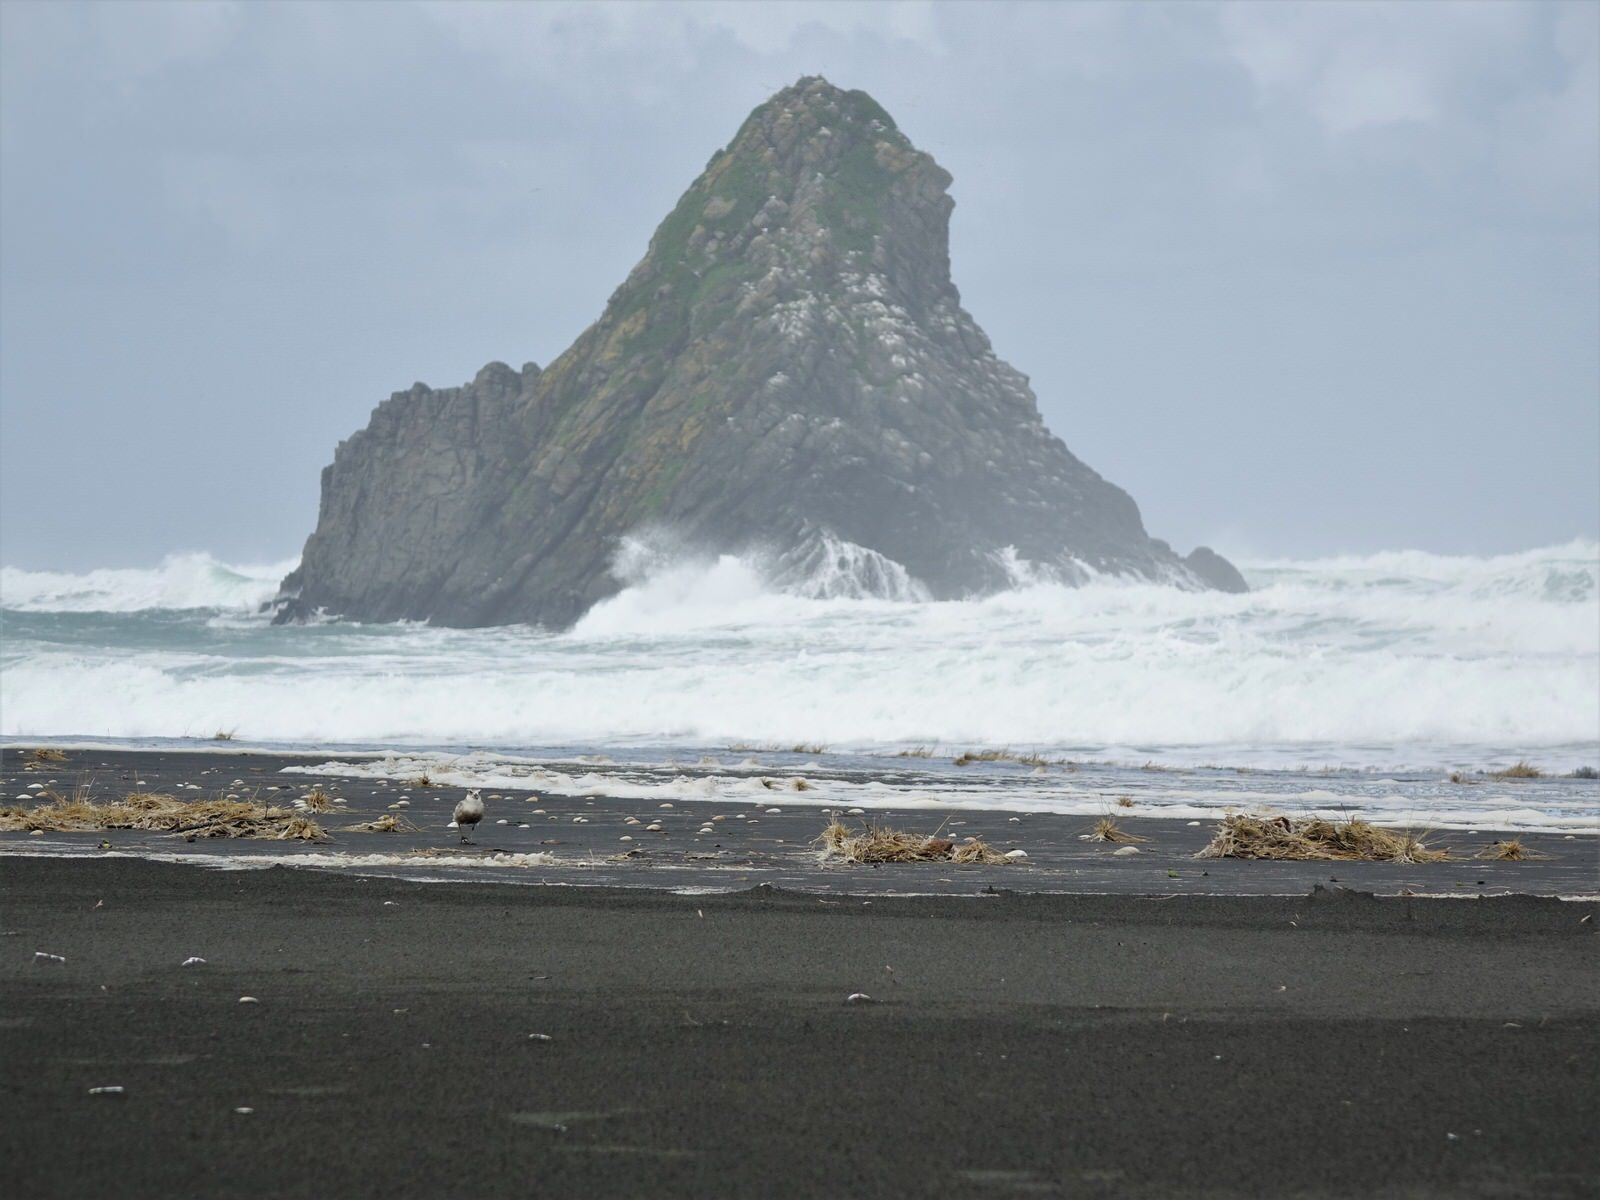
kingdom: Animalia
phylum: Chordata
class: Aves
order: Charadriiformes
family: Charadriidae
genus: Anarhynchus
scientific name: Anarhynchus
